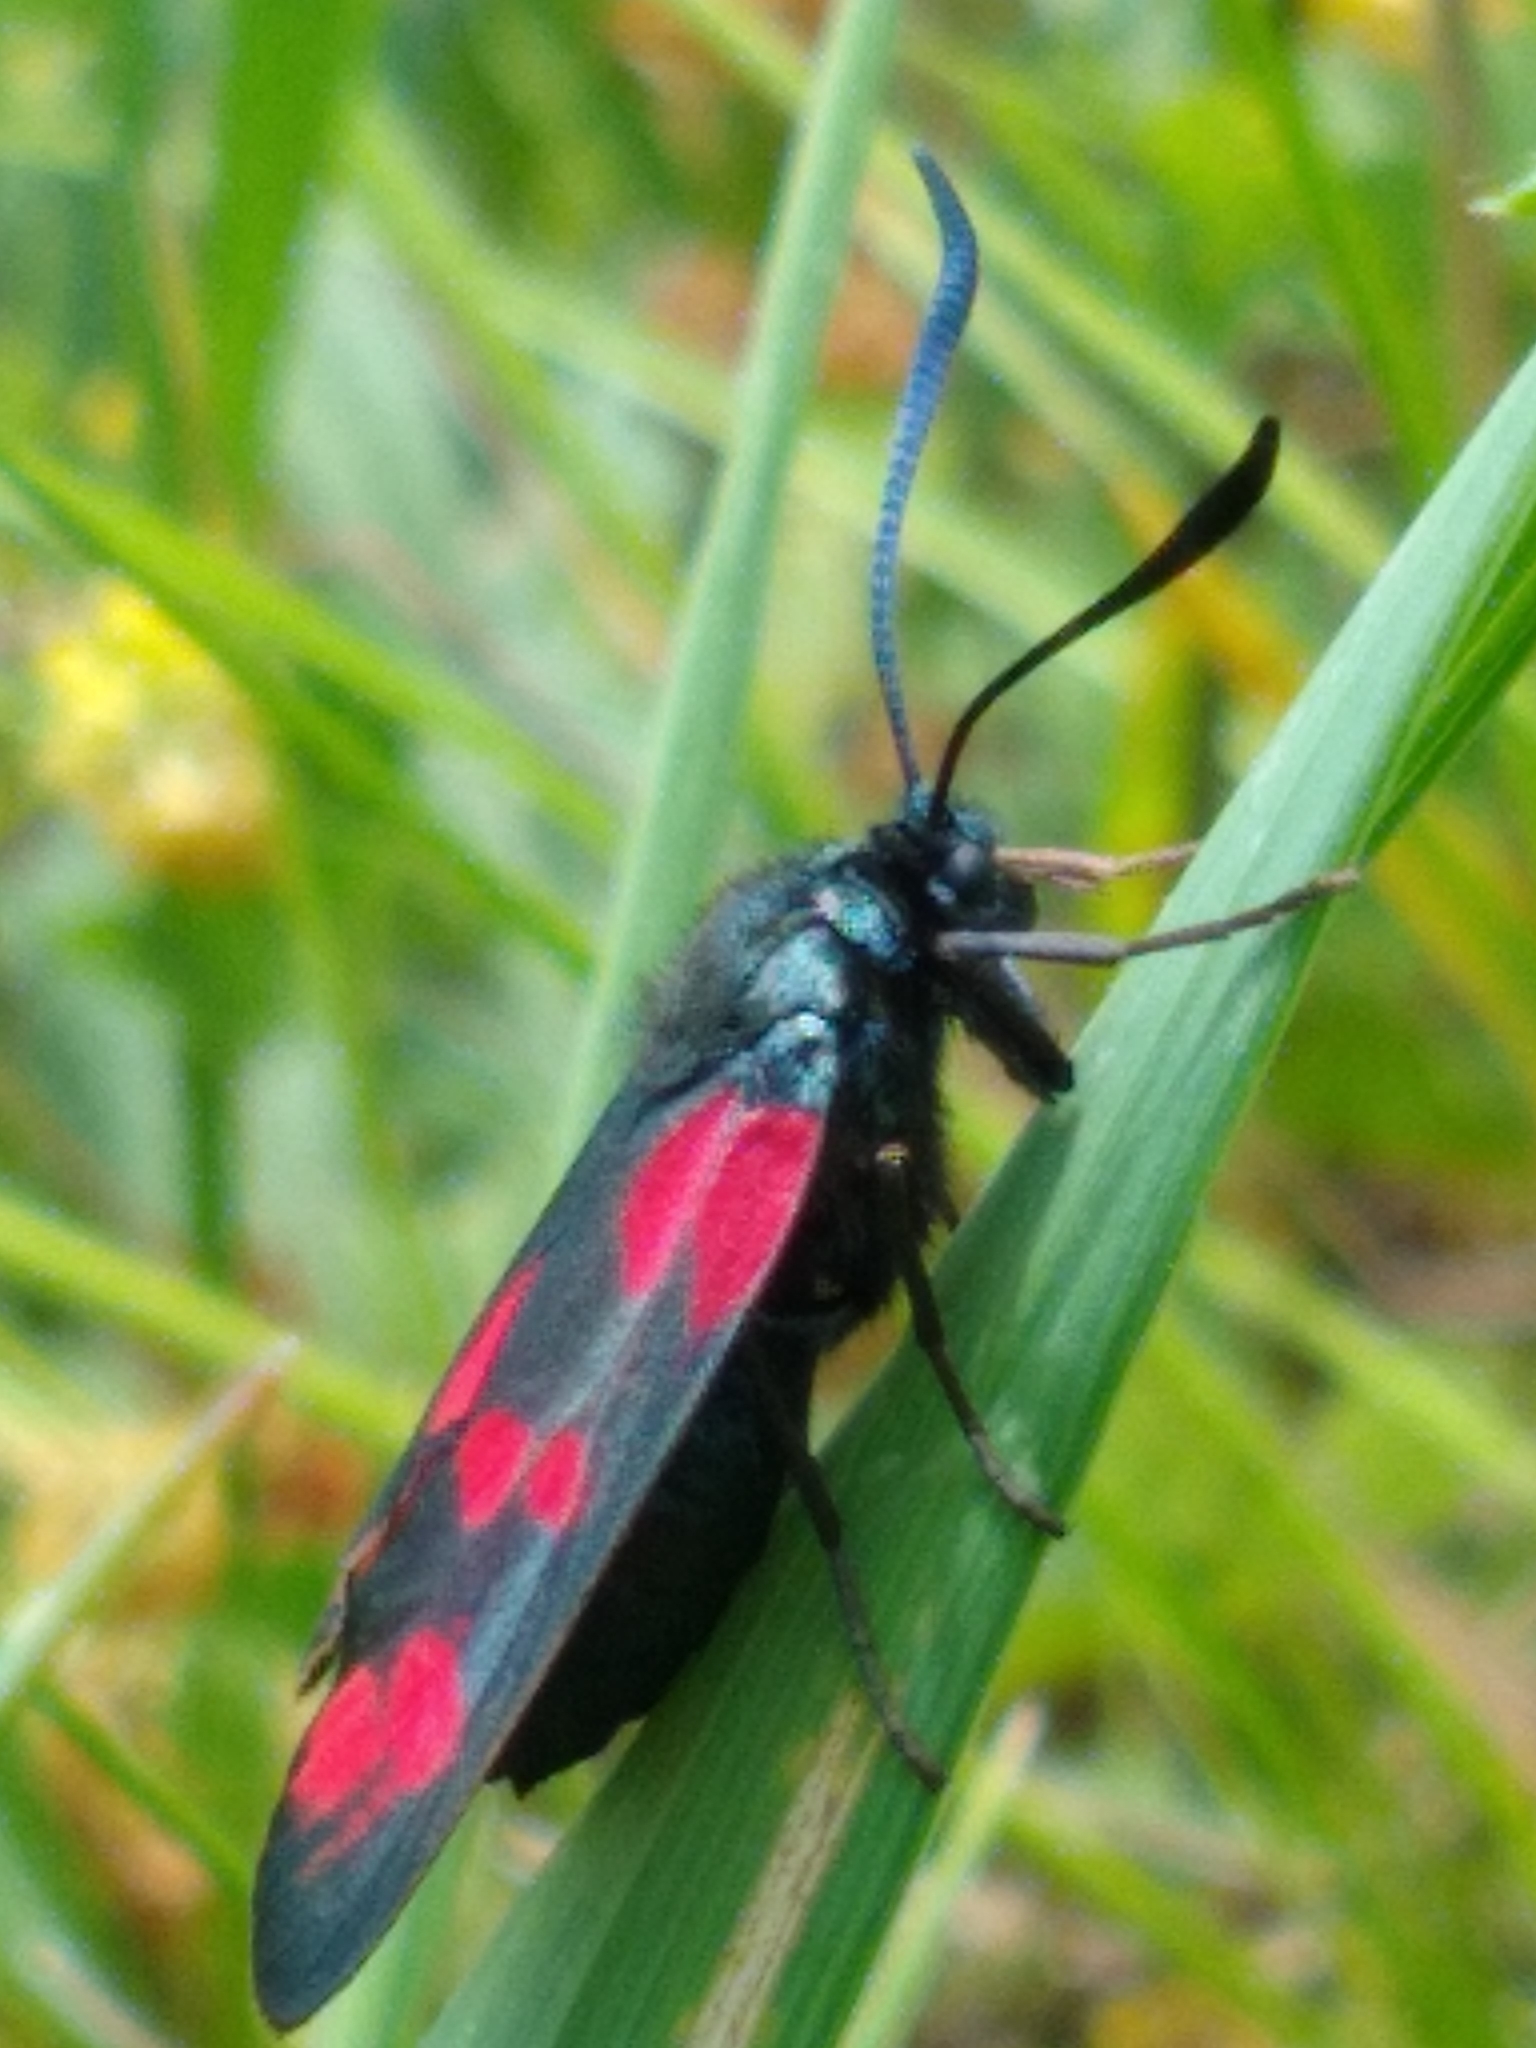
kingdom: Animalia
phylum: Arthropoda
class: Insecta
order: Lepidoptera
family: Zygaenidae
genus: Zygaena
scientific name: Zygaena filipendulae
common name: Six-spot burnet
